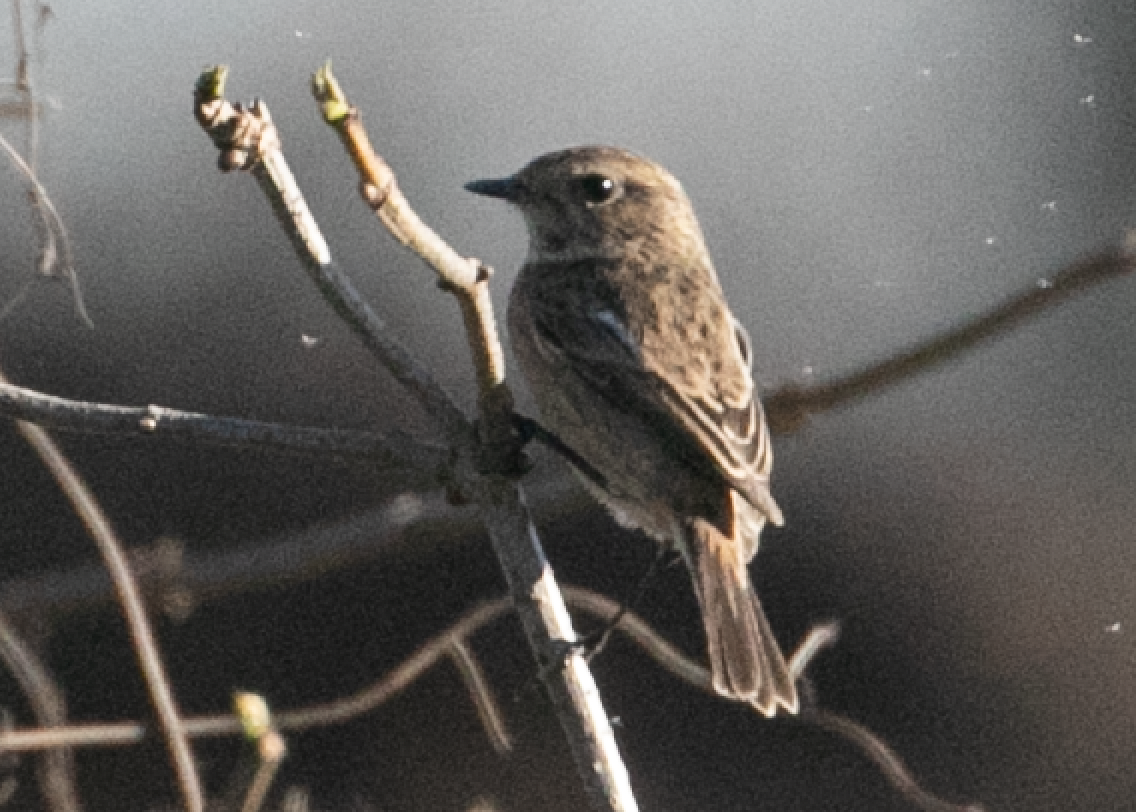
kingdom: Animalia
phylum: Chordata
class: Aves
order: Passeriformes
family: Muscicapidae
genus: Saxicola
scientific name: Saxicola rubicola
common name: European stonechat
